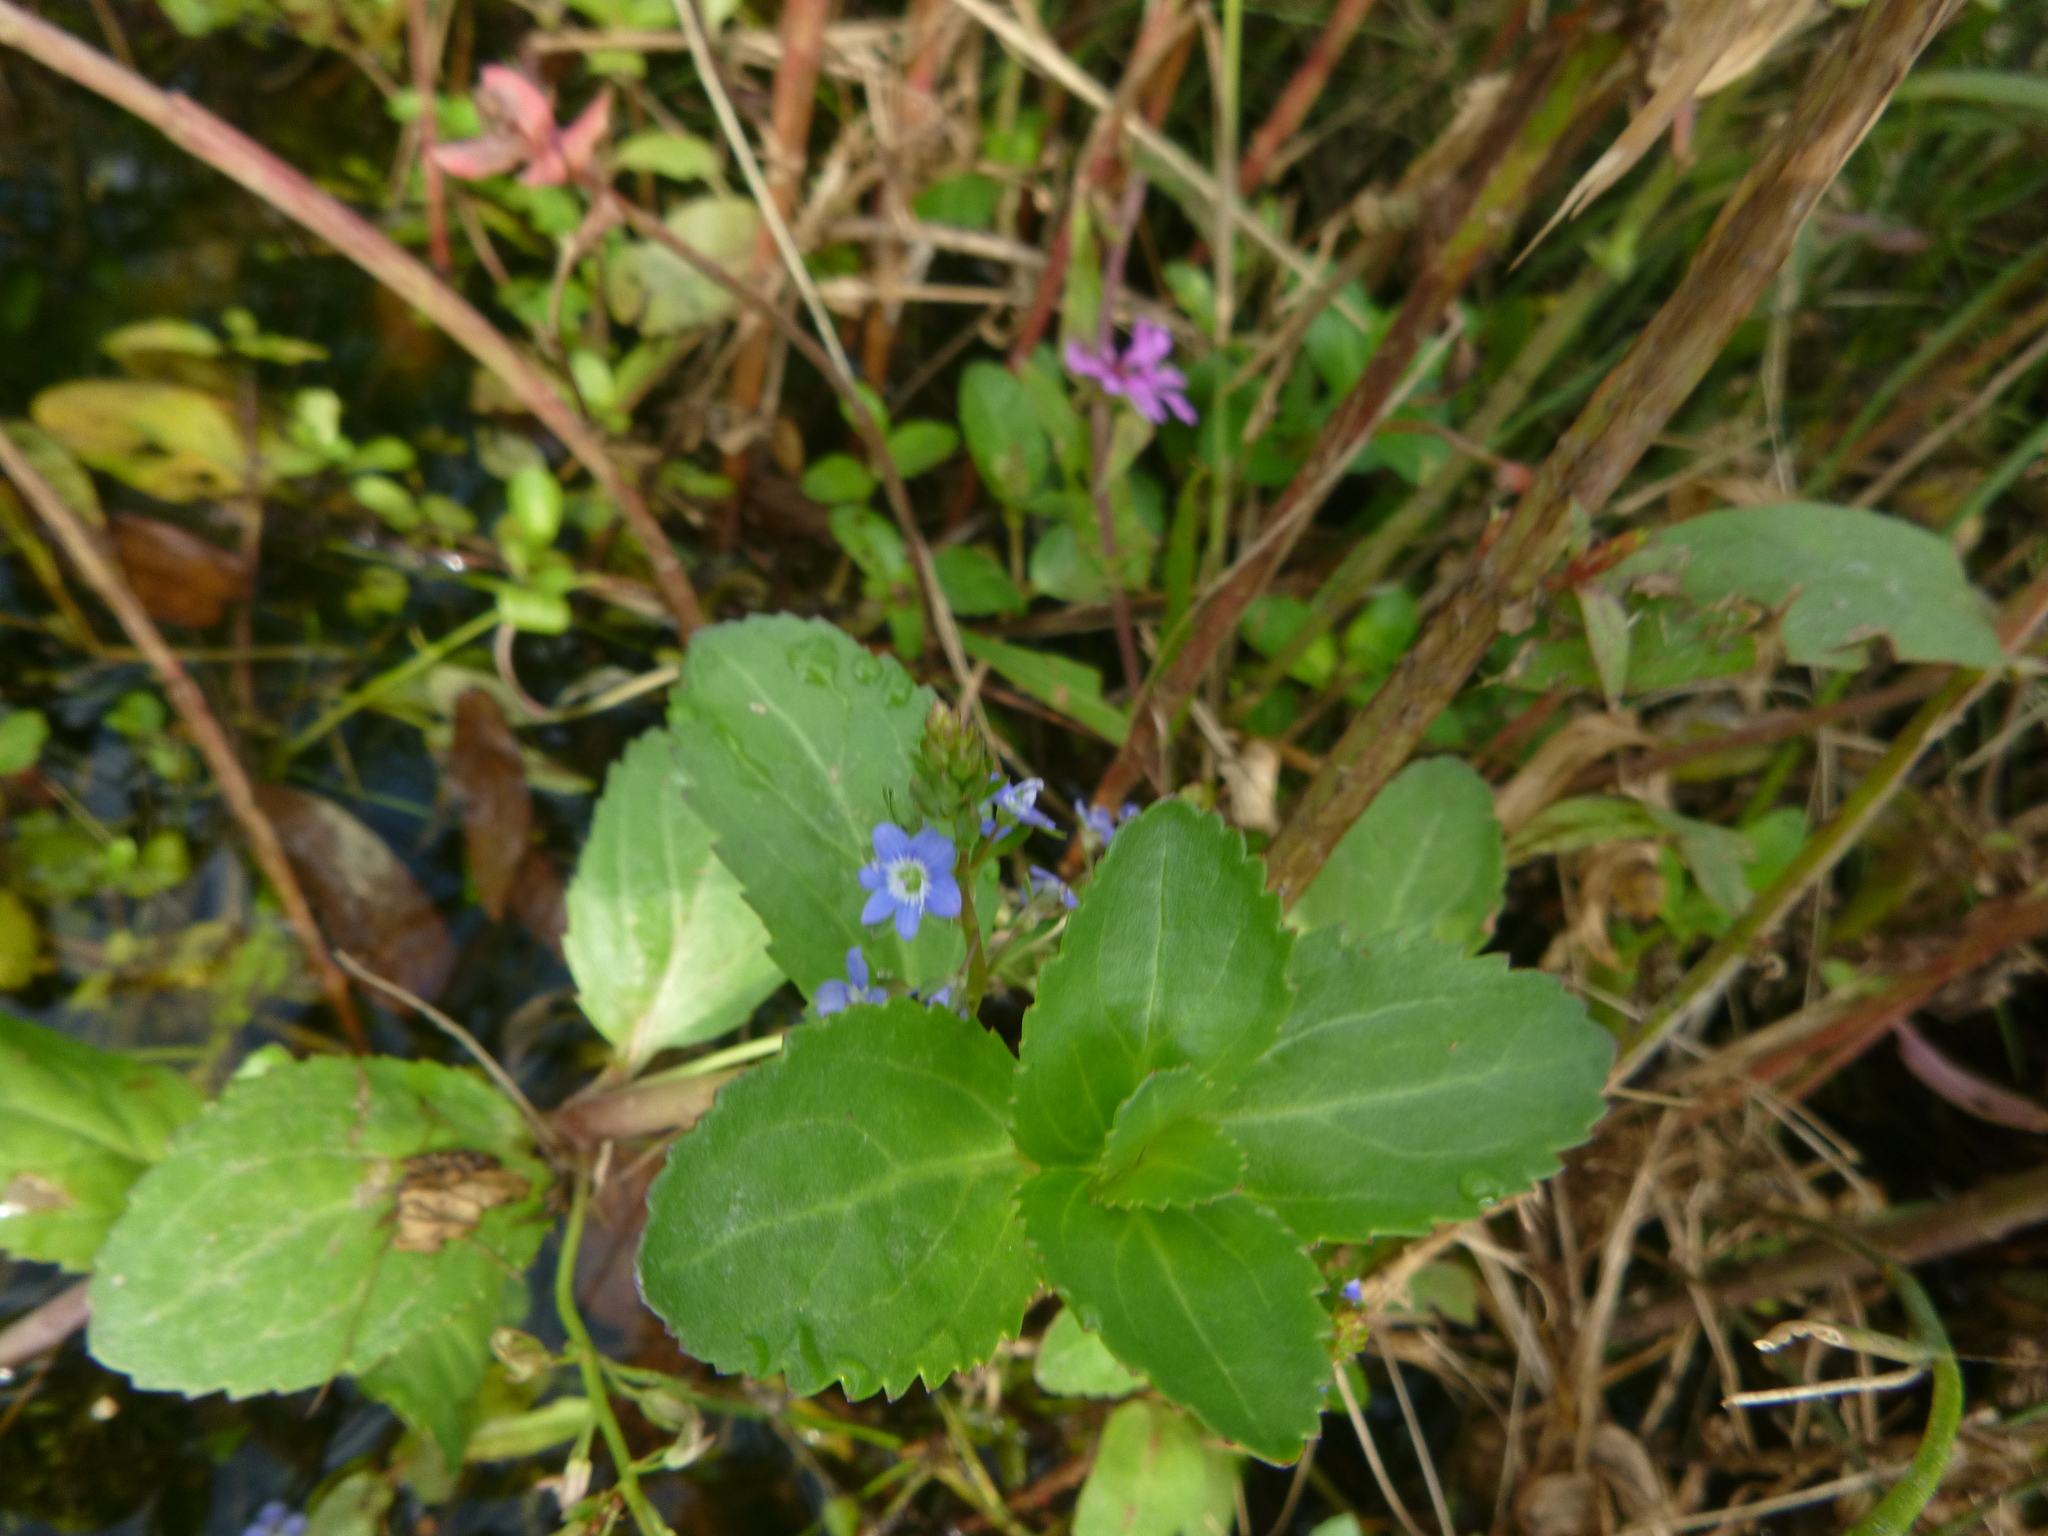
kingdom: Plantae
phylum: Tracheophyta
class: Magnoliopsida
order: Lamiales
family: Plantaginaceae
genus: Veronica
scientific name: Veronica beccabunga
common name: Brooklime
